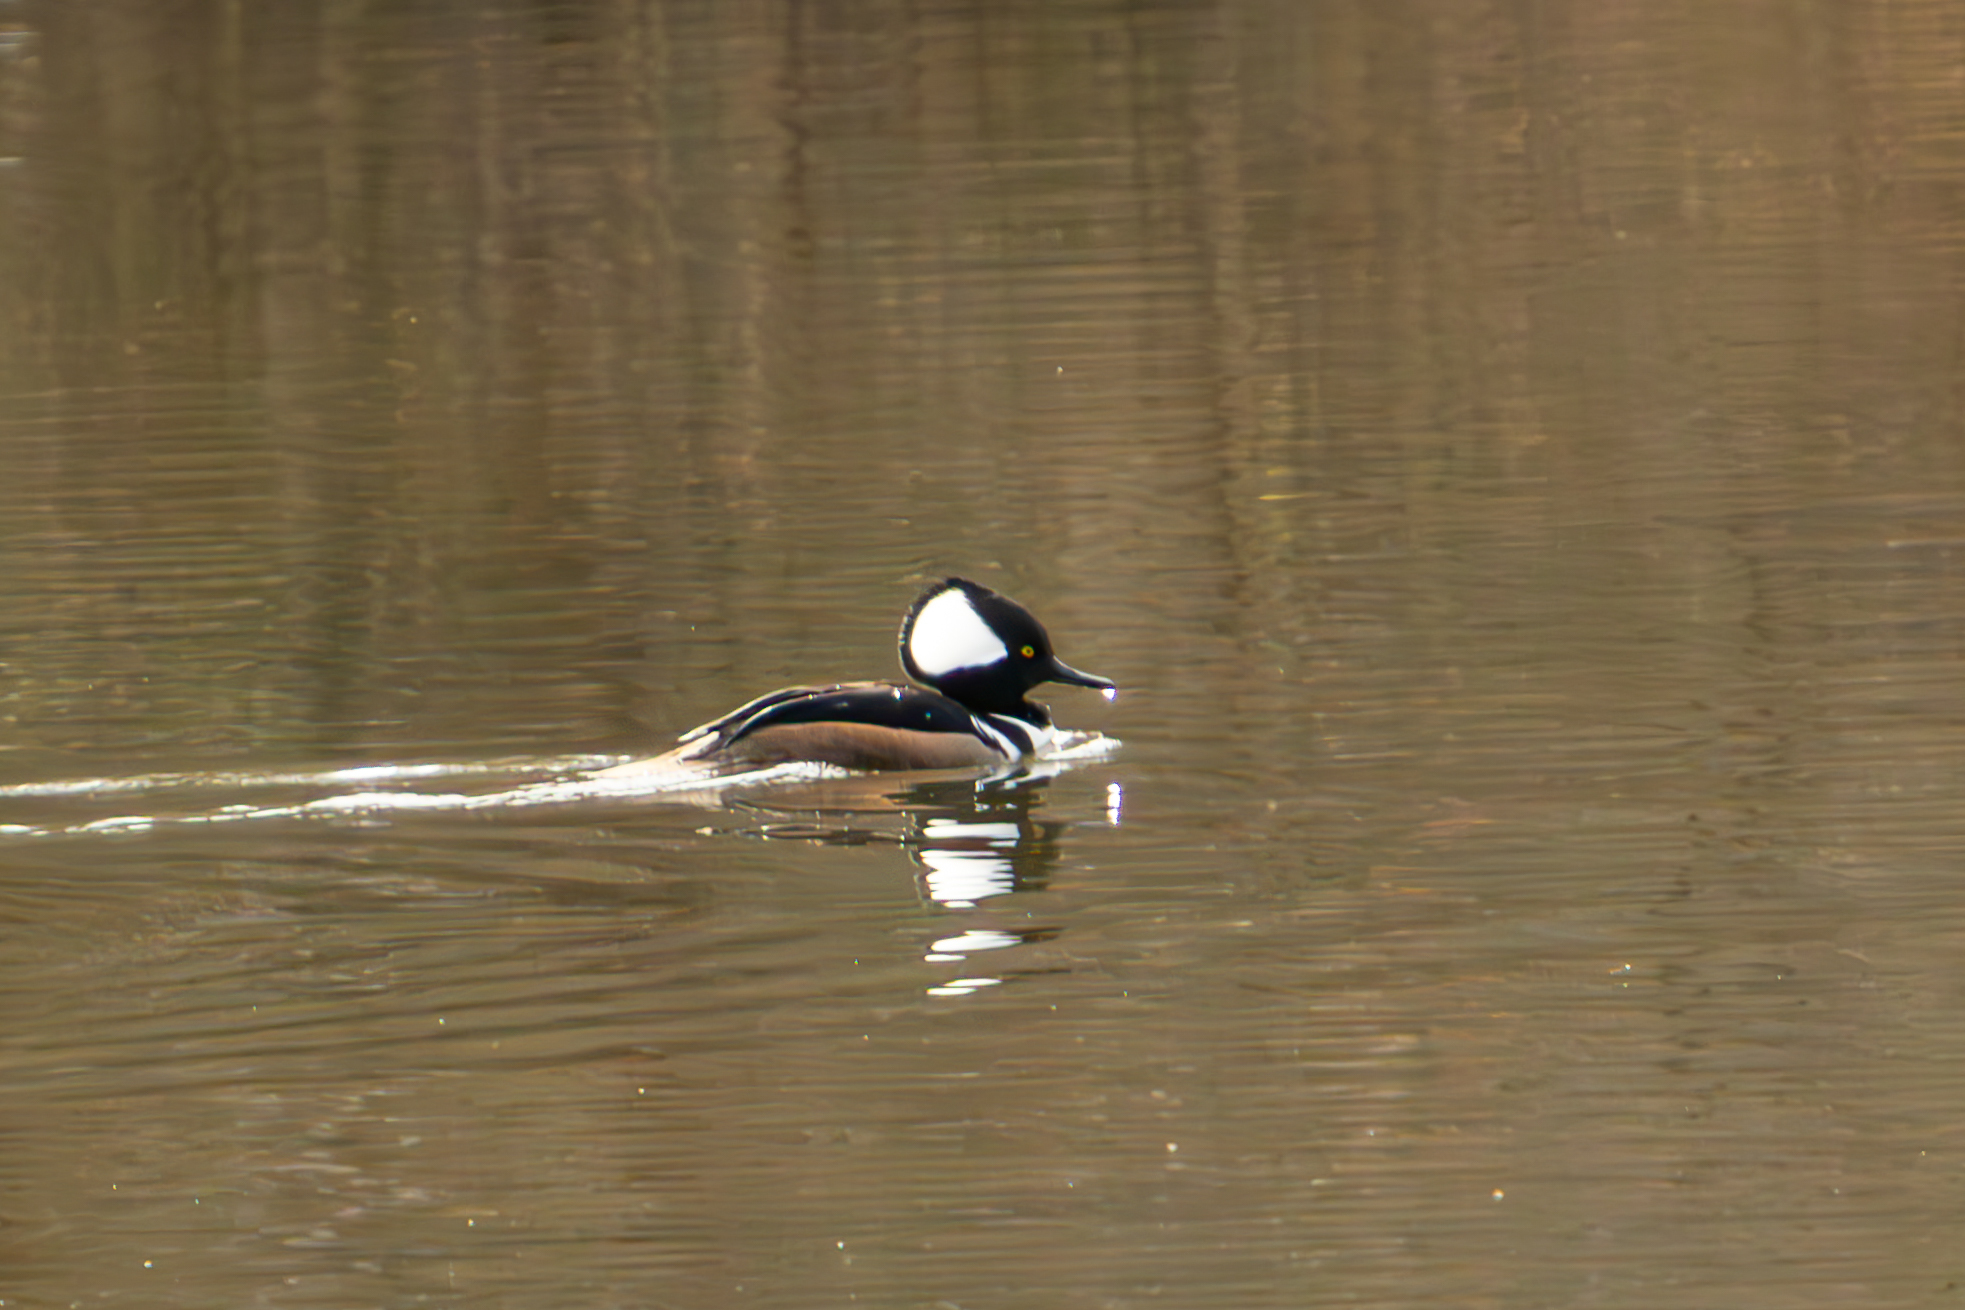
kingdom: Animalia
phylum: Chordata
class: Aves
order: Anseriformes
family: Anatidae
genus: Lophodytes
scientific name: Lophodytes cucullatus
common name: Hooded merganser
